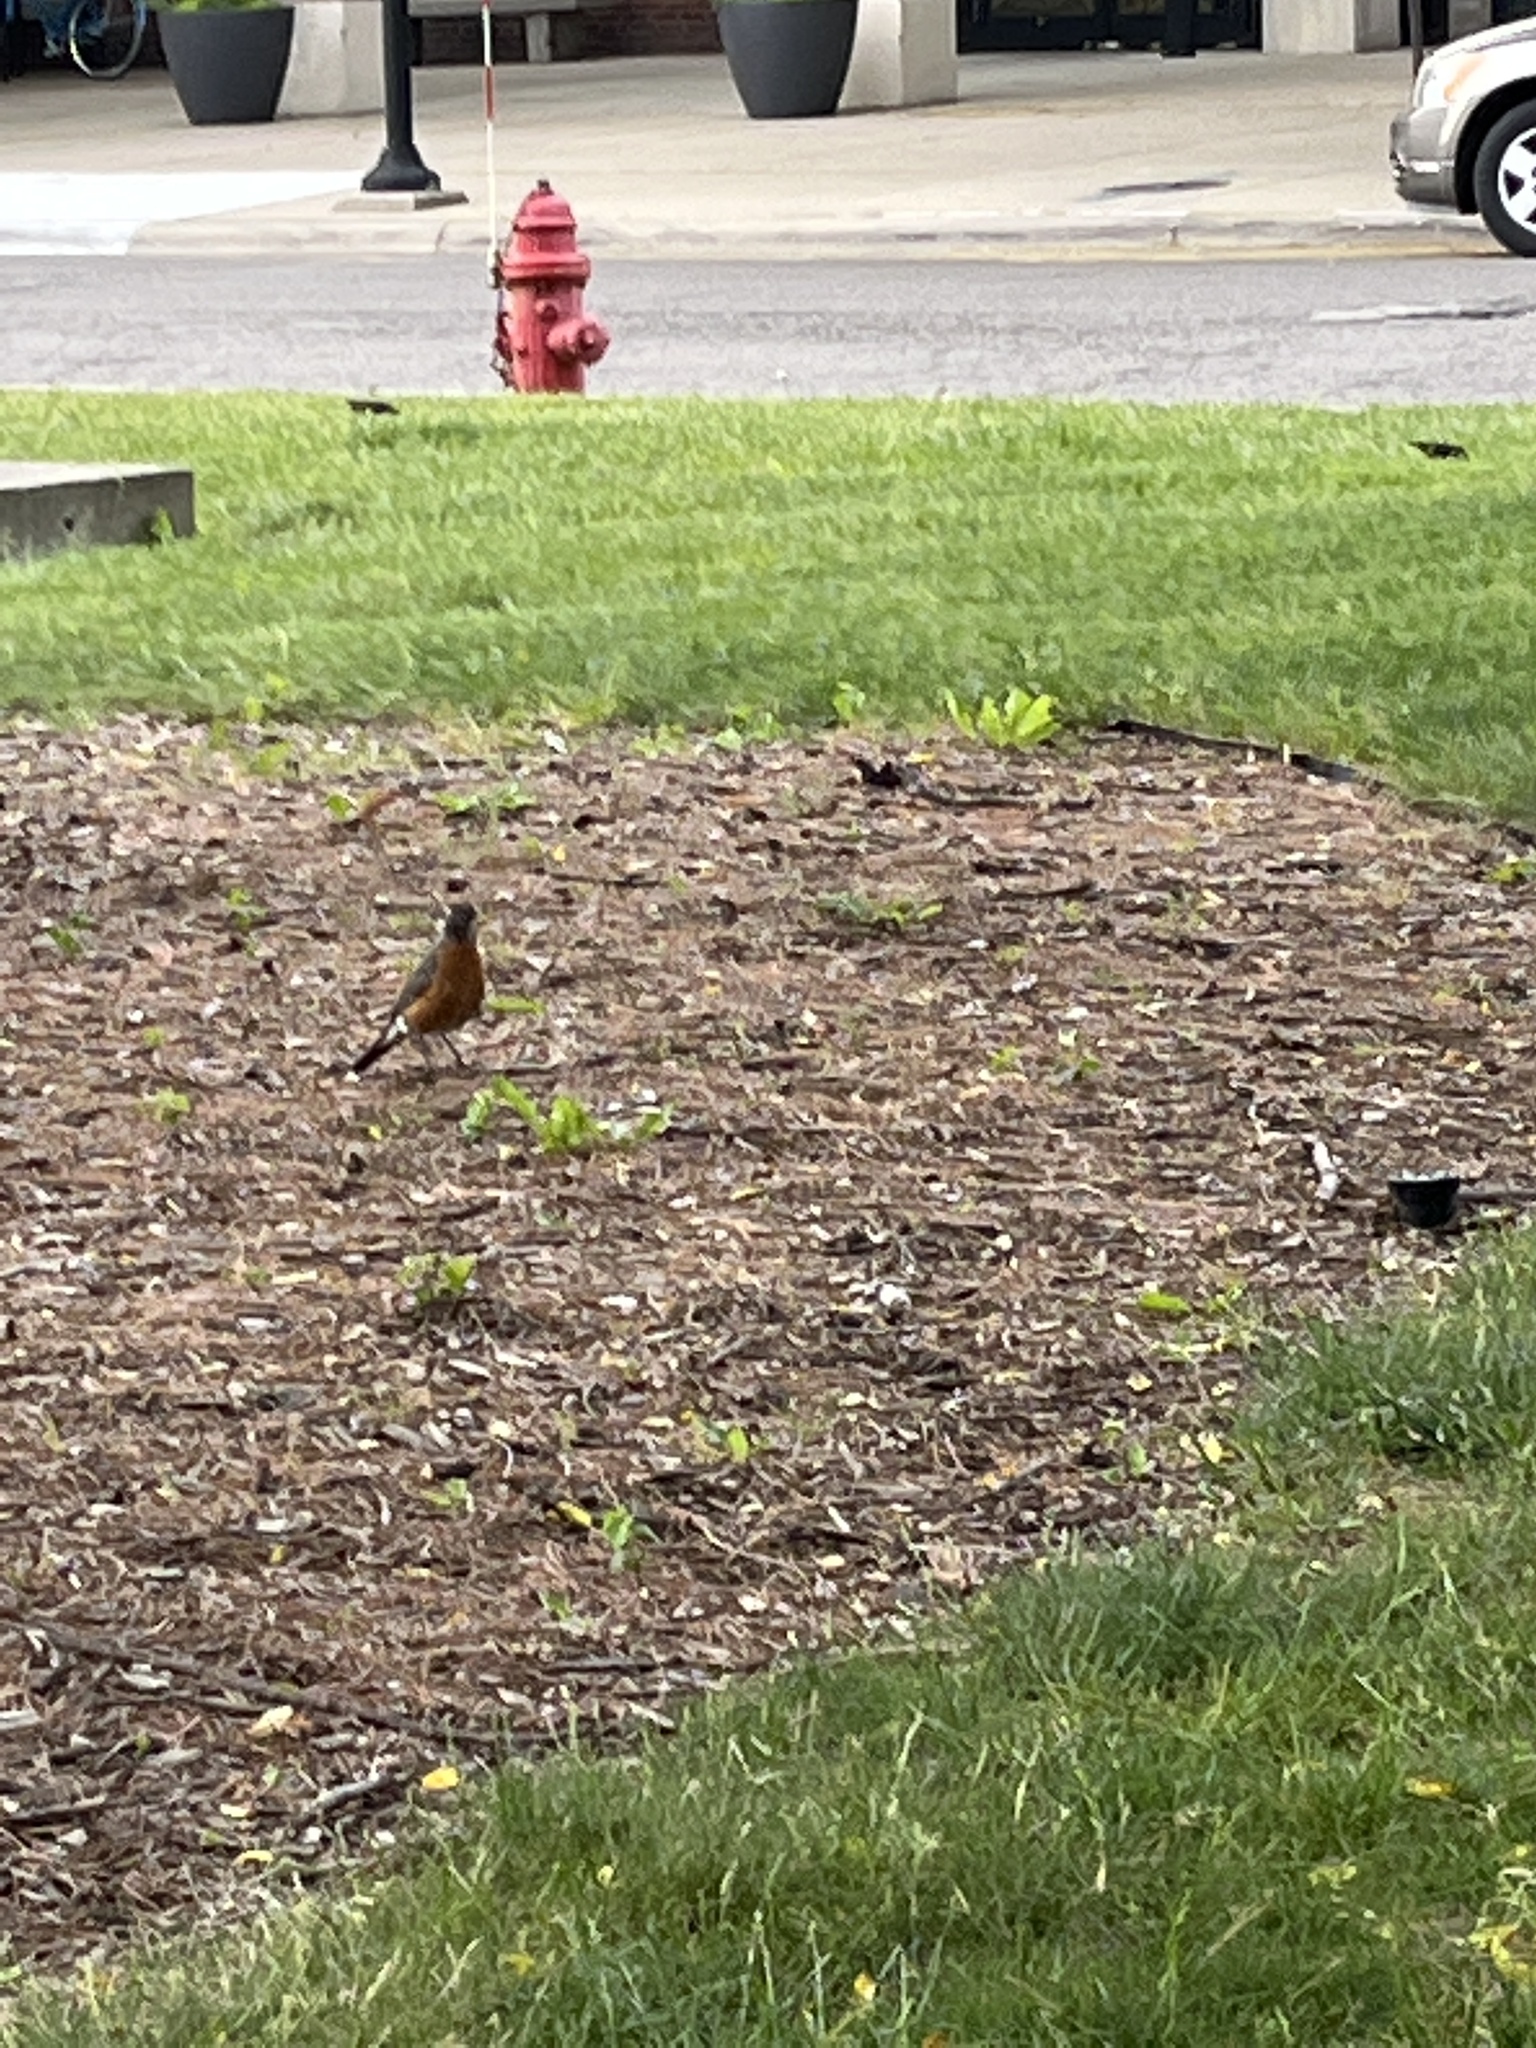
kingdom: Animalia
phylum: Chordata
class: Aves
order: Passeriformes
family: Turdidae
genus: Turdus
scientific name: Turdus migratorius
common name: American robin
